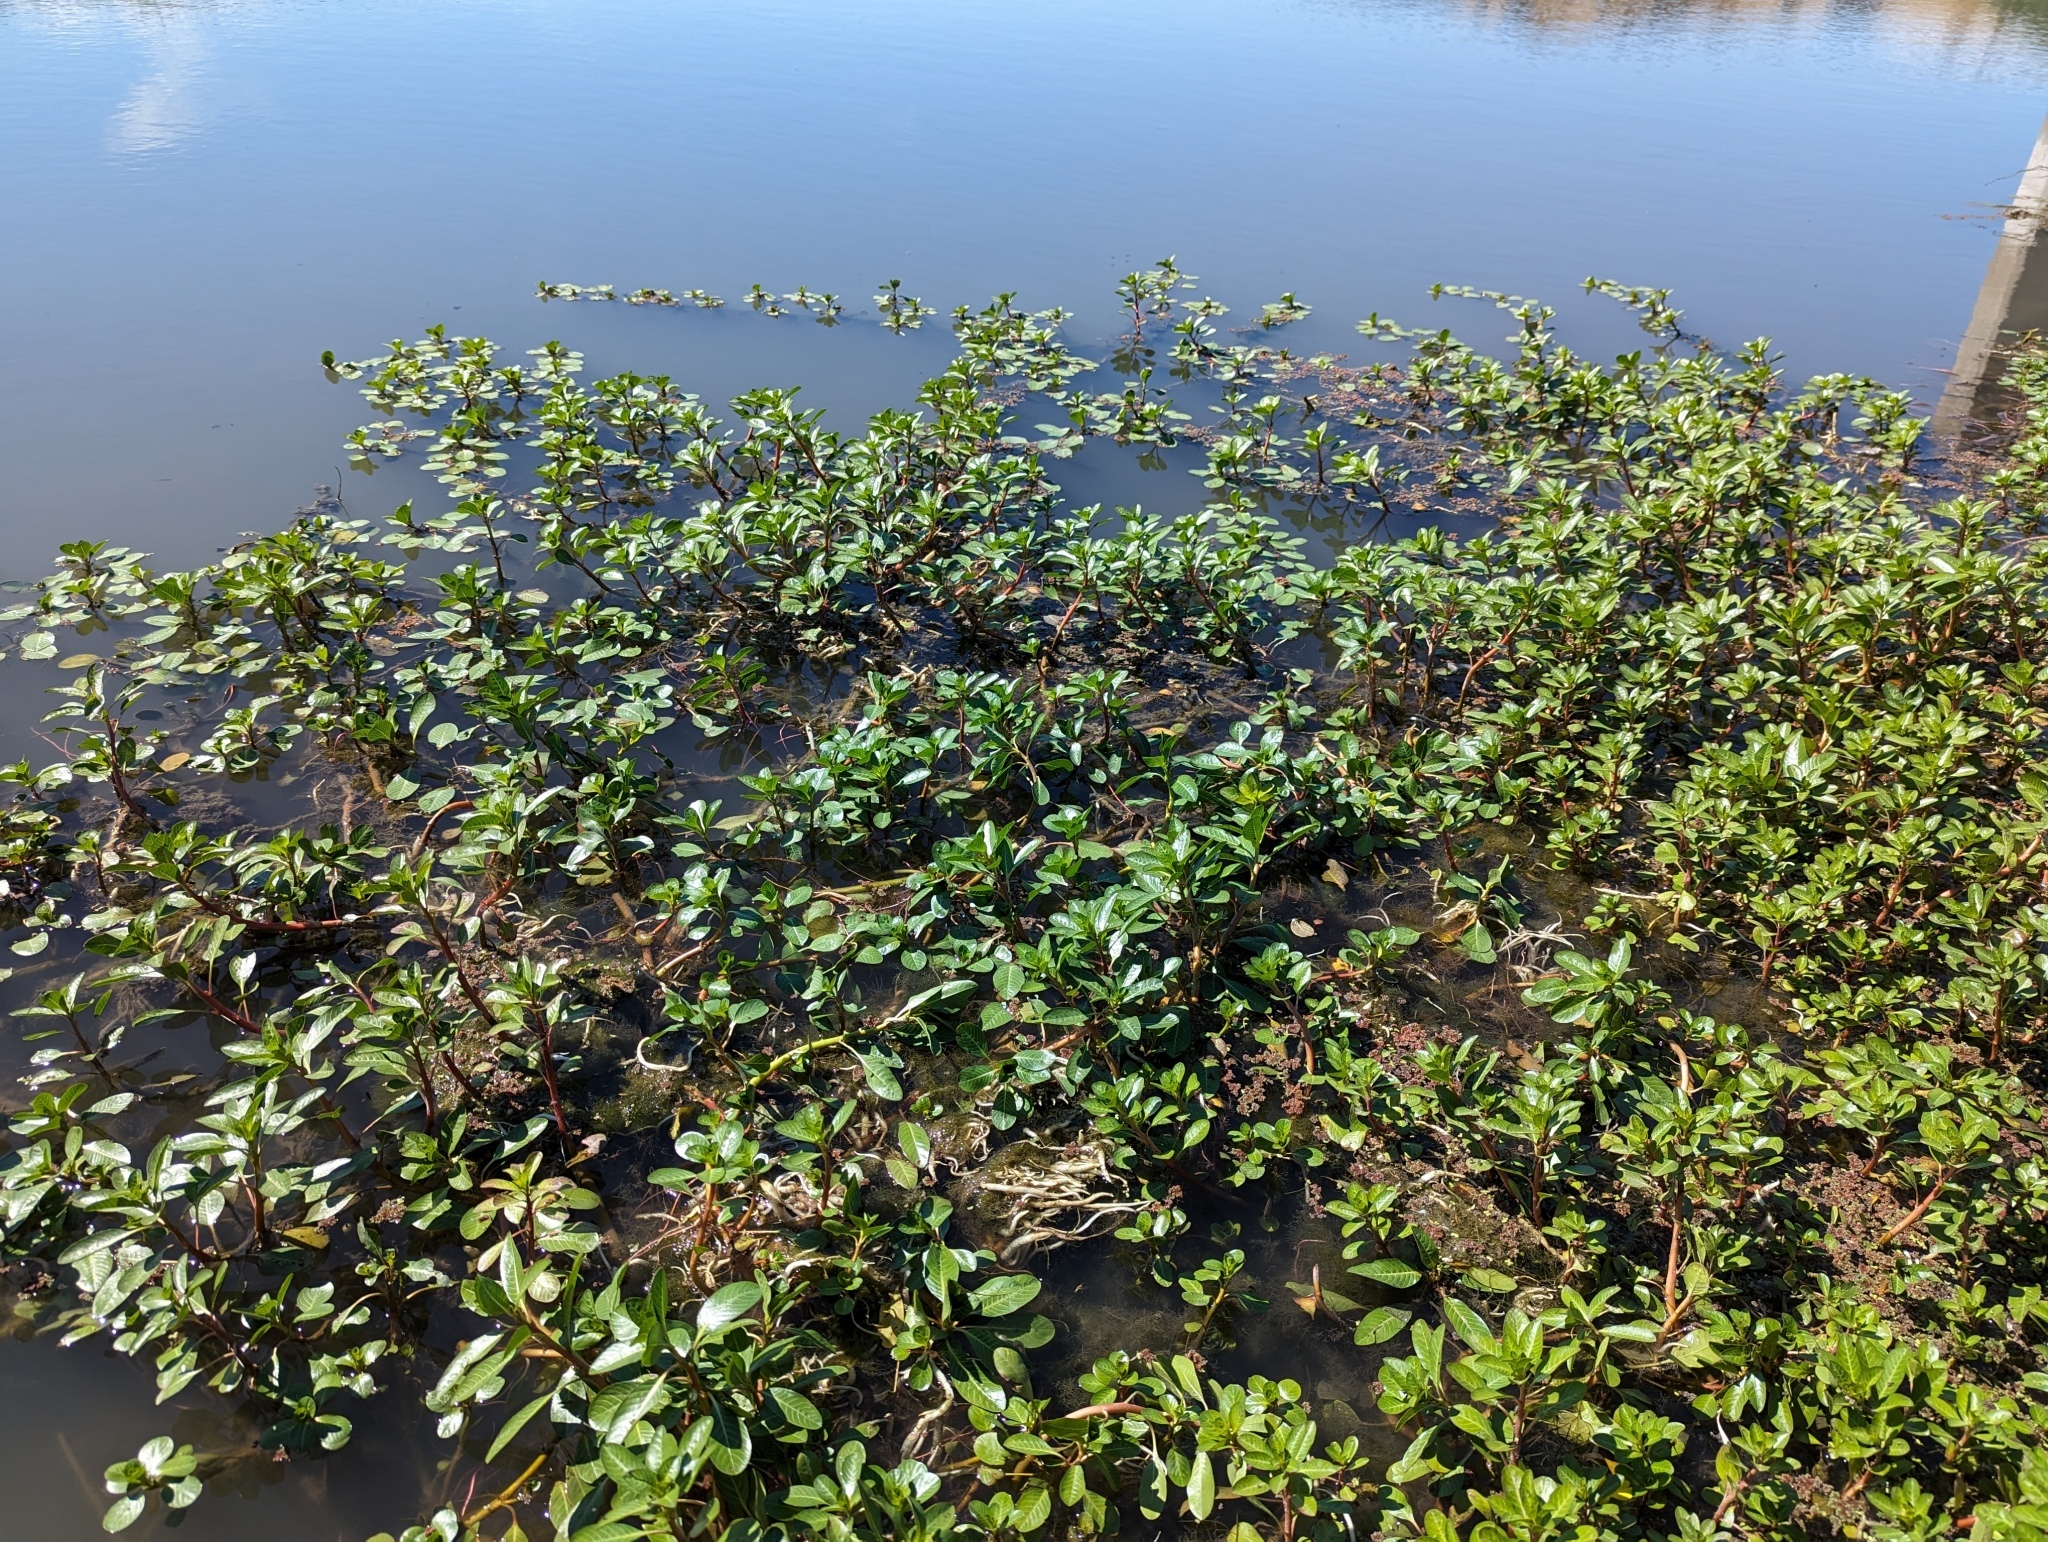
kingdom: Plantae
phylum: Tracheophyta
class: Magnoliopsida
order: Myrtales
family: Onagraceae
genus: Ludwigia
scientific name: Ludwigia peploides
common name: Floating primrose-willow
